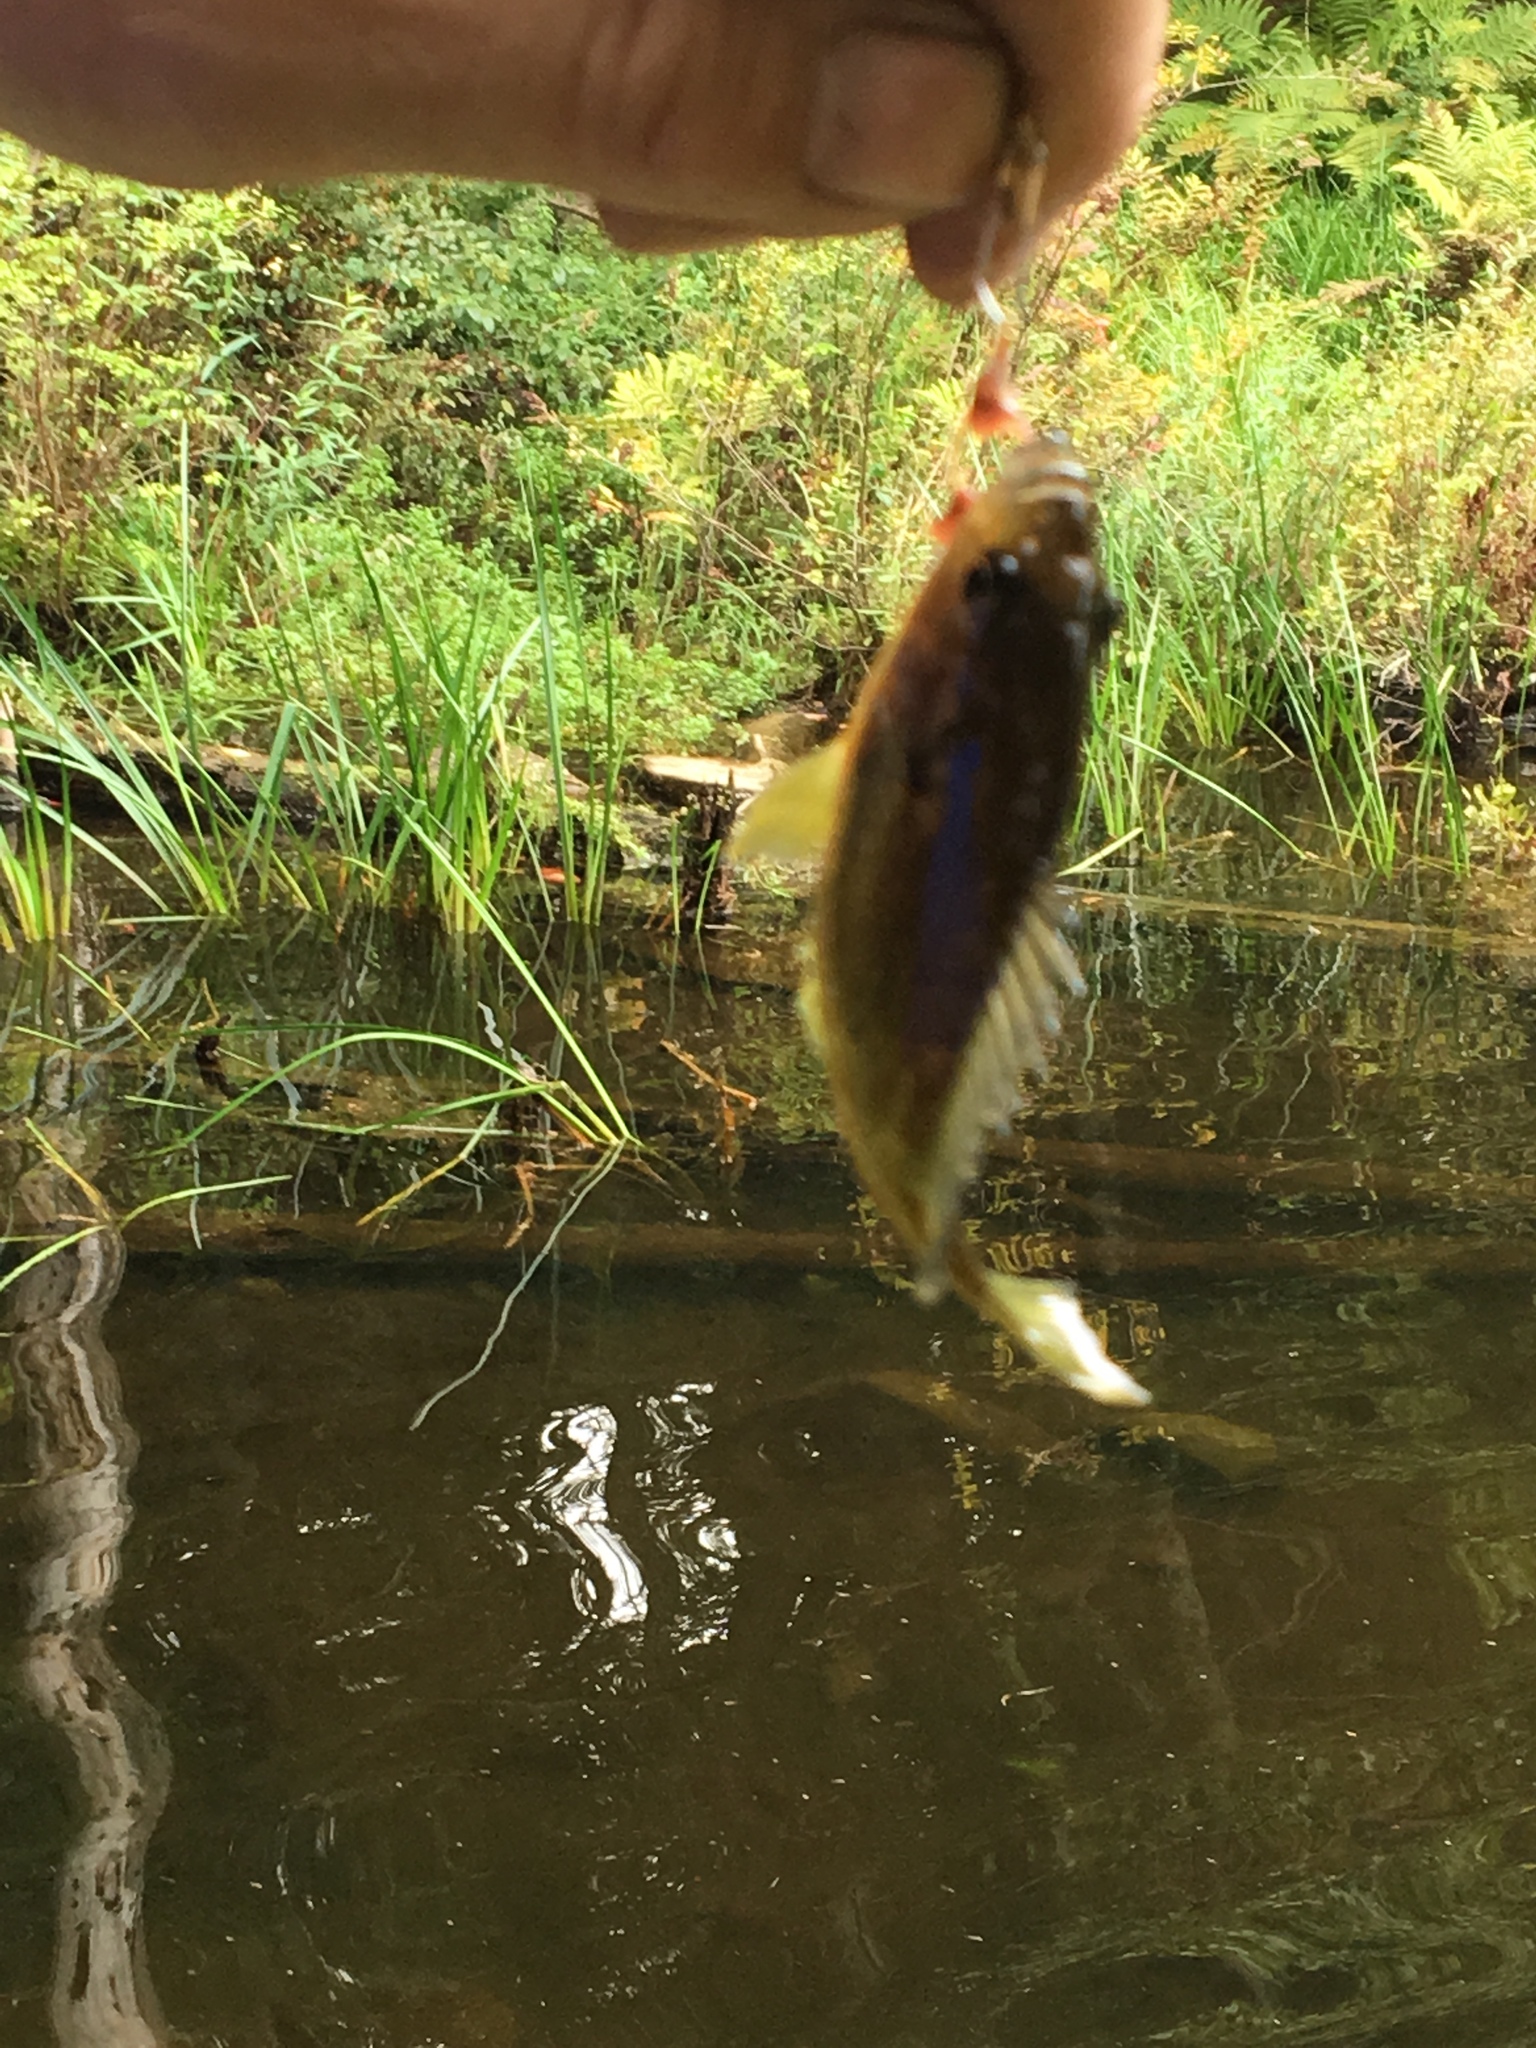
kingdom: Animalia
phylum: Chordata
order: Perciformes
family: Centrarchidae
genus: Lepomis
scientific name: Lepomis
